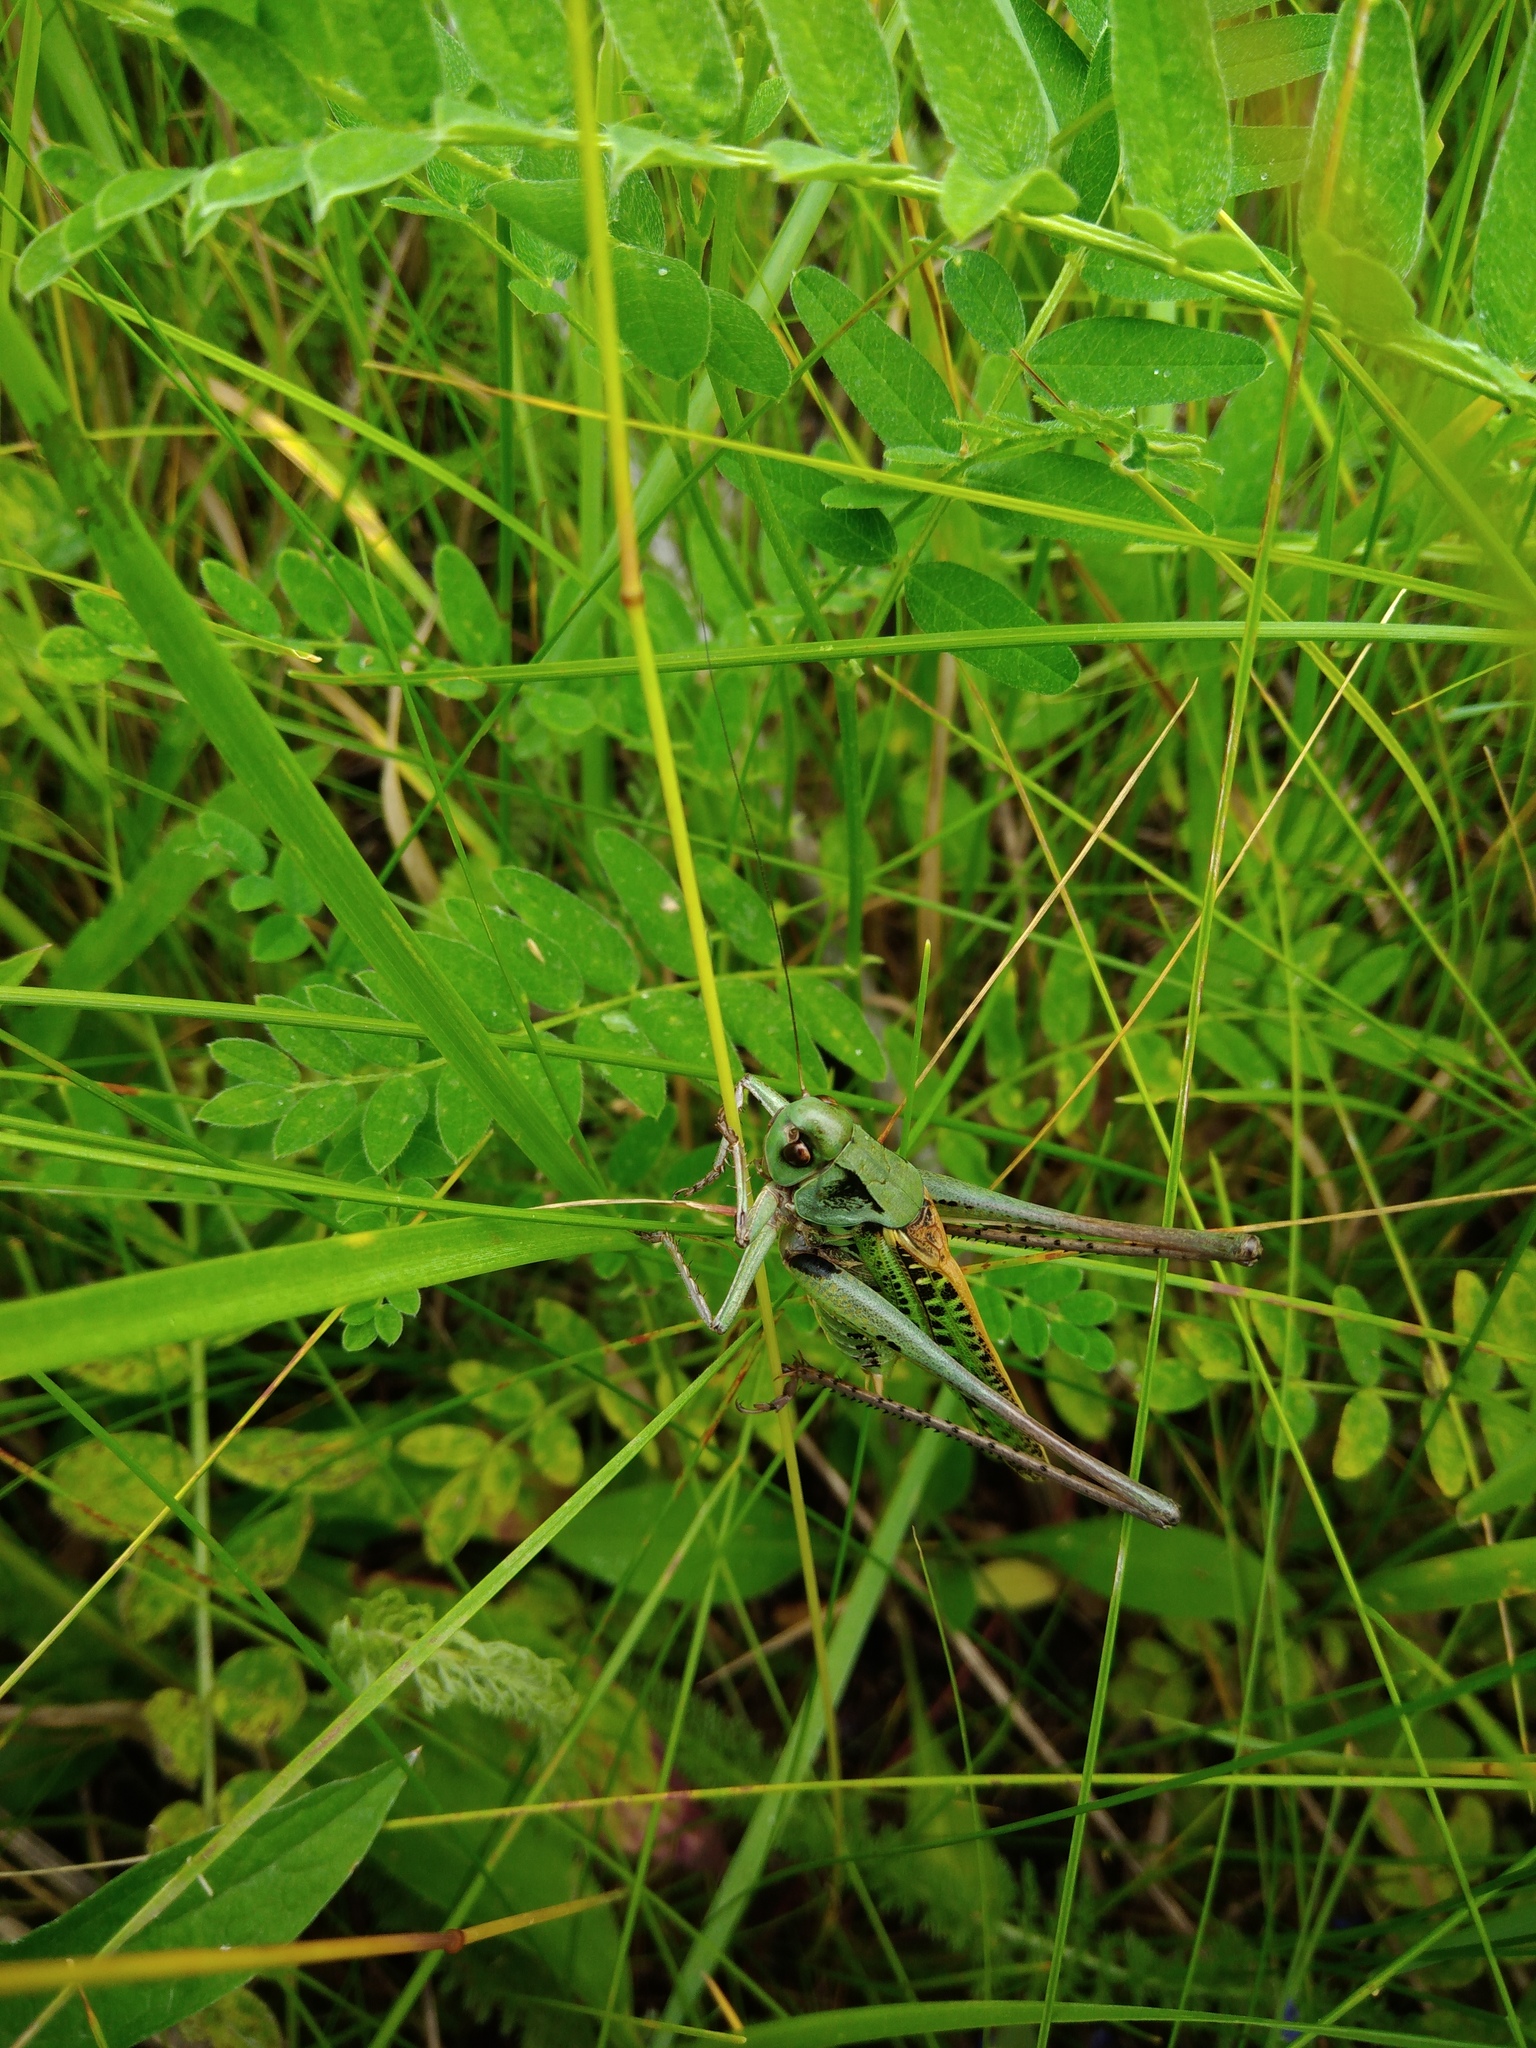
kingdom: Animalia
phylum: Arthropoda
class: Insecta
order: Orthoptera
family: Tettigoniidae
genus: Decticus
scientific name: Decticus verrucivorus
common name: Wart-biter
